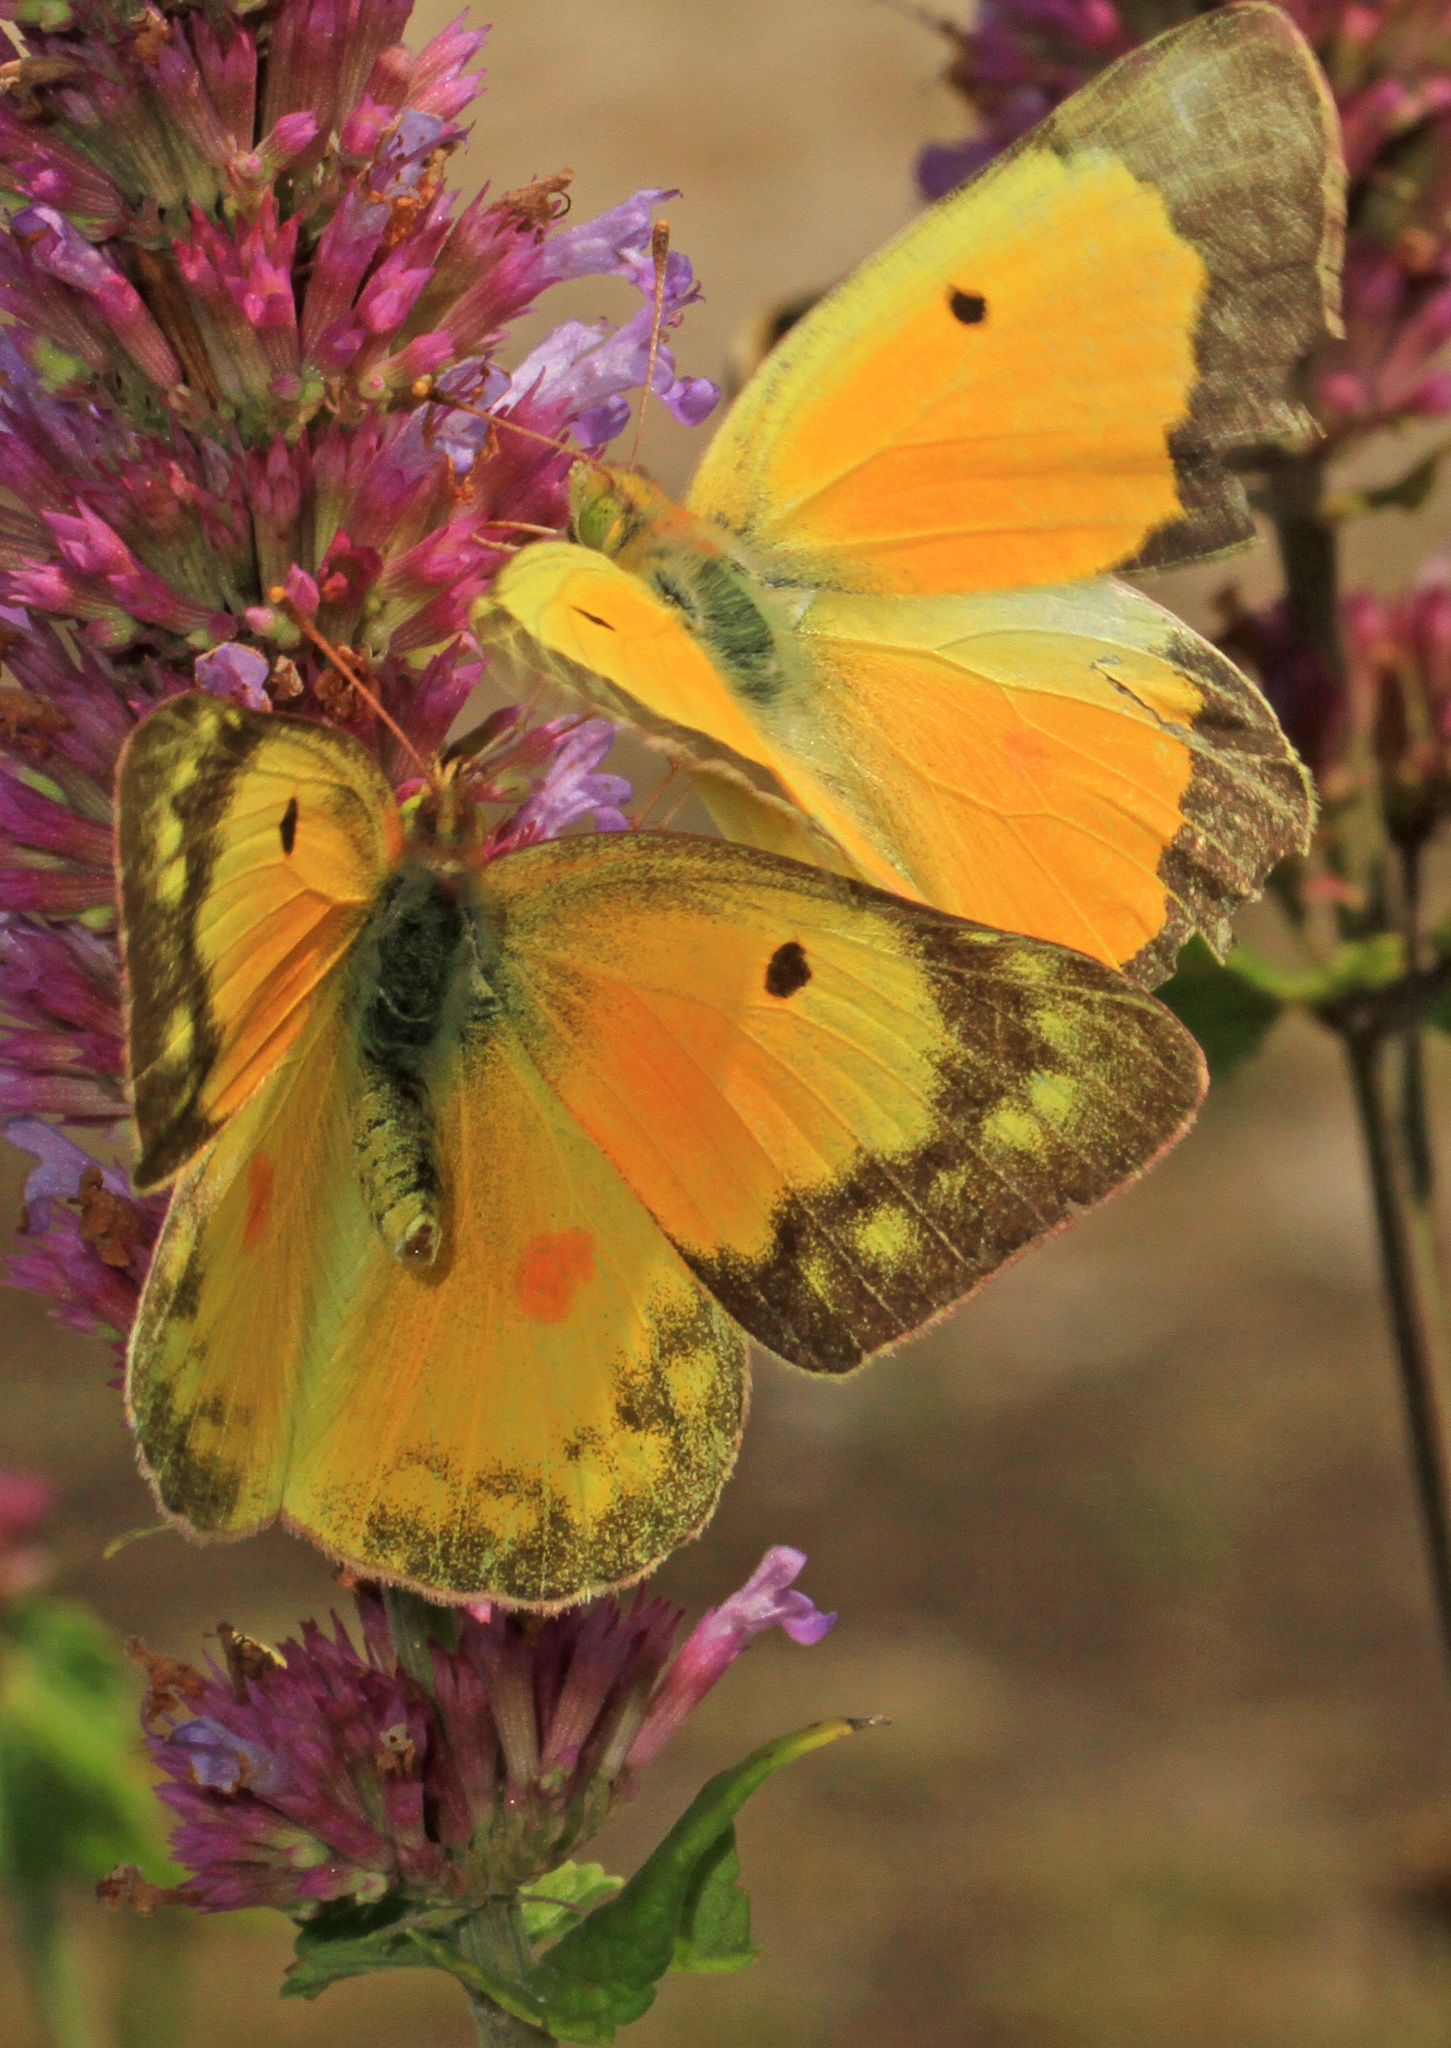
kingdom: Animalia
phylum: Arthropoda
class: Insecta
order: Lepidoptera
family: Pieridae
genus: Colias
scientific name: Colias eurytheme
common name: Alfalfa butterfly
